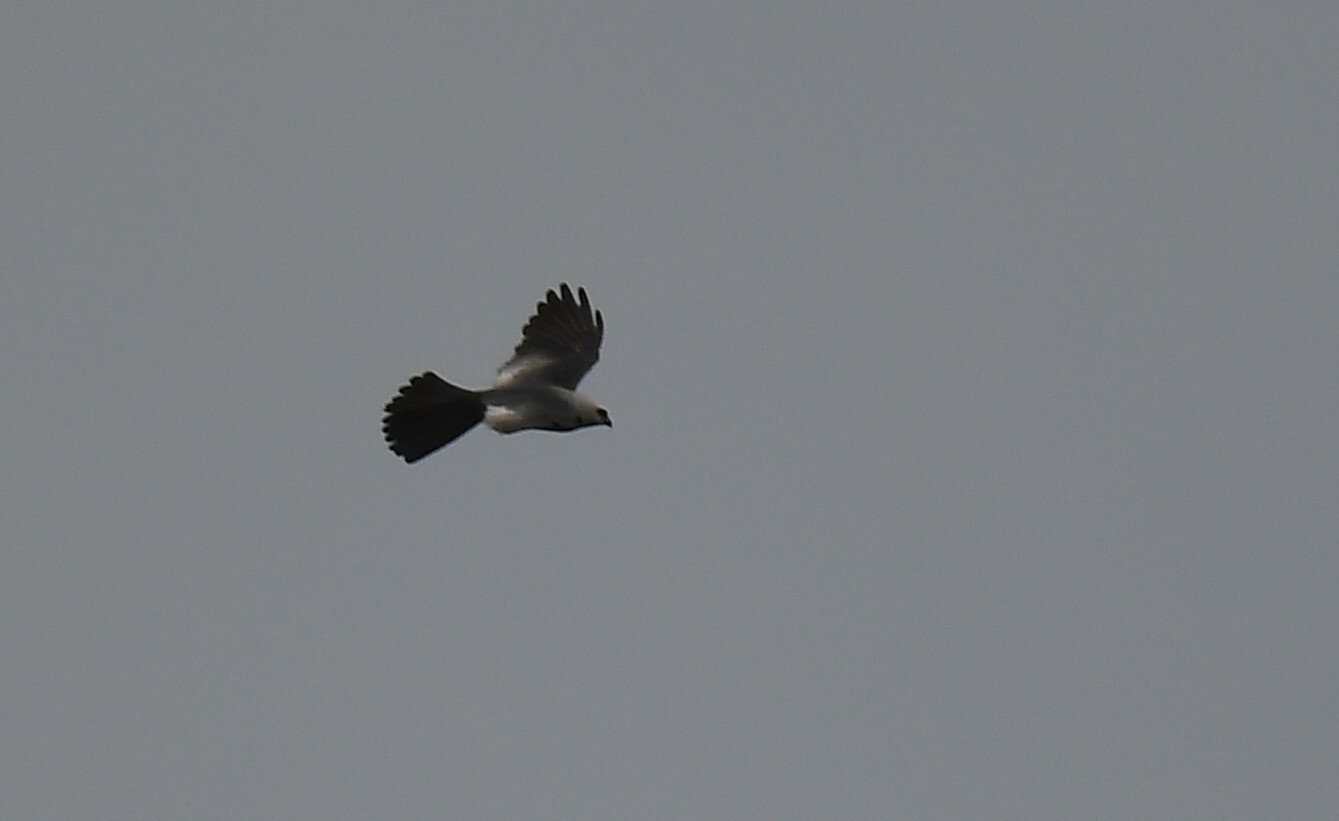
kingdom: Animalia
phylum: Chordata
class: Aves
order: Accipitriformes
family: Accipitridae
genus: Ictinia
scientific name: Ictinia mississippiensis
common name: Mississippi kite
